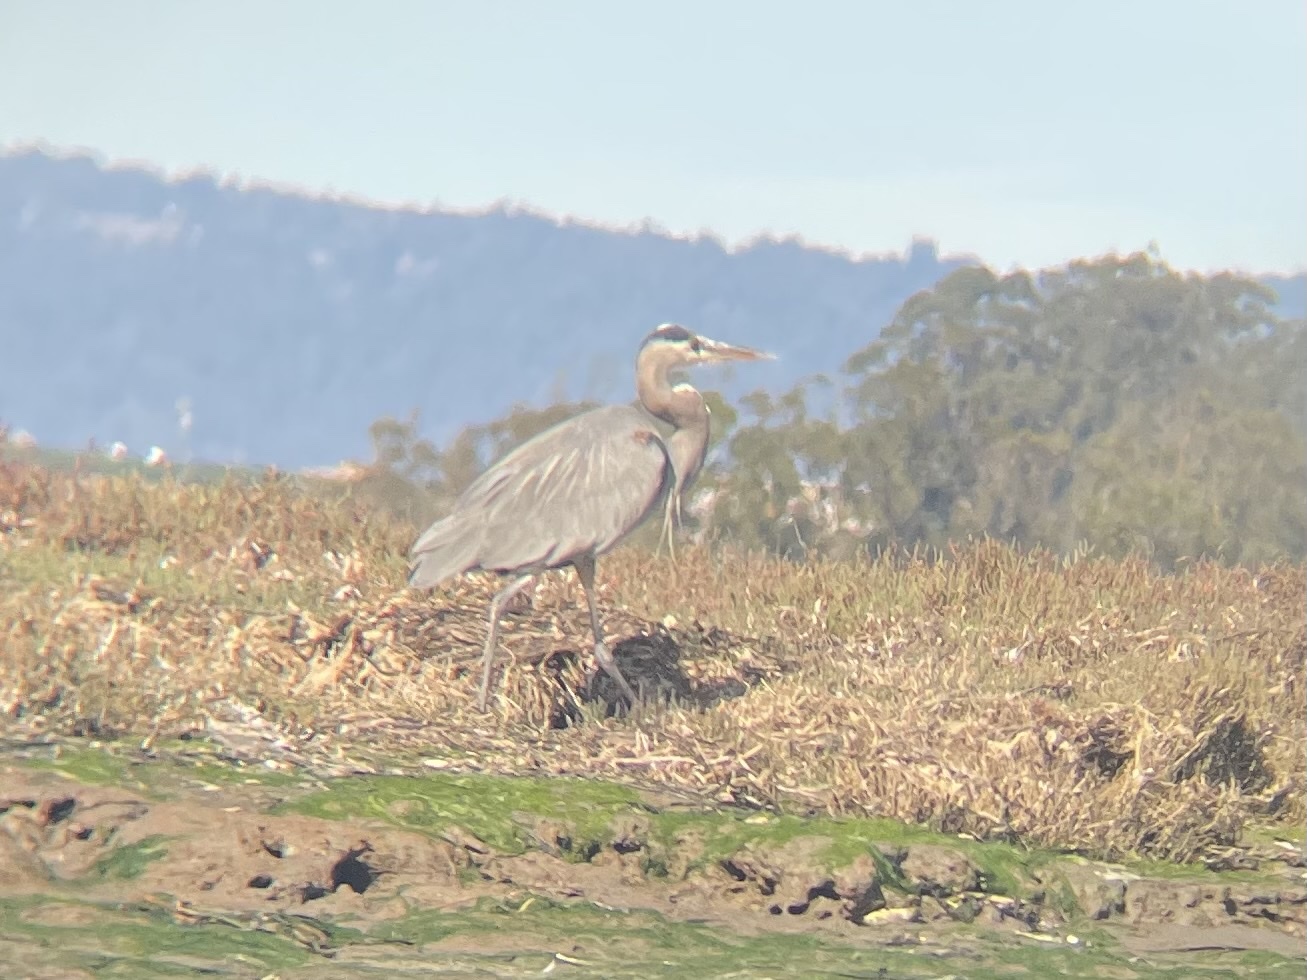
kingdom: Animalia
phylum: Chordata
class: Aves
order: Pelecaniformes
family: Ardeidae
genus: Ardea
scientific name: Ardea herodias
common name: Great blue heron
